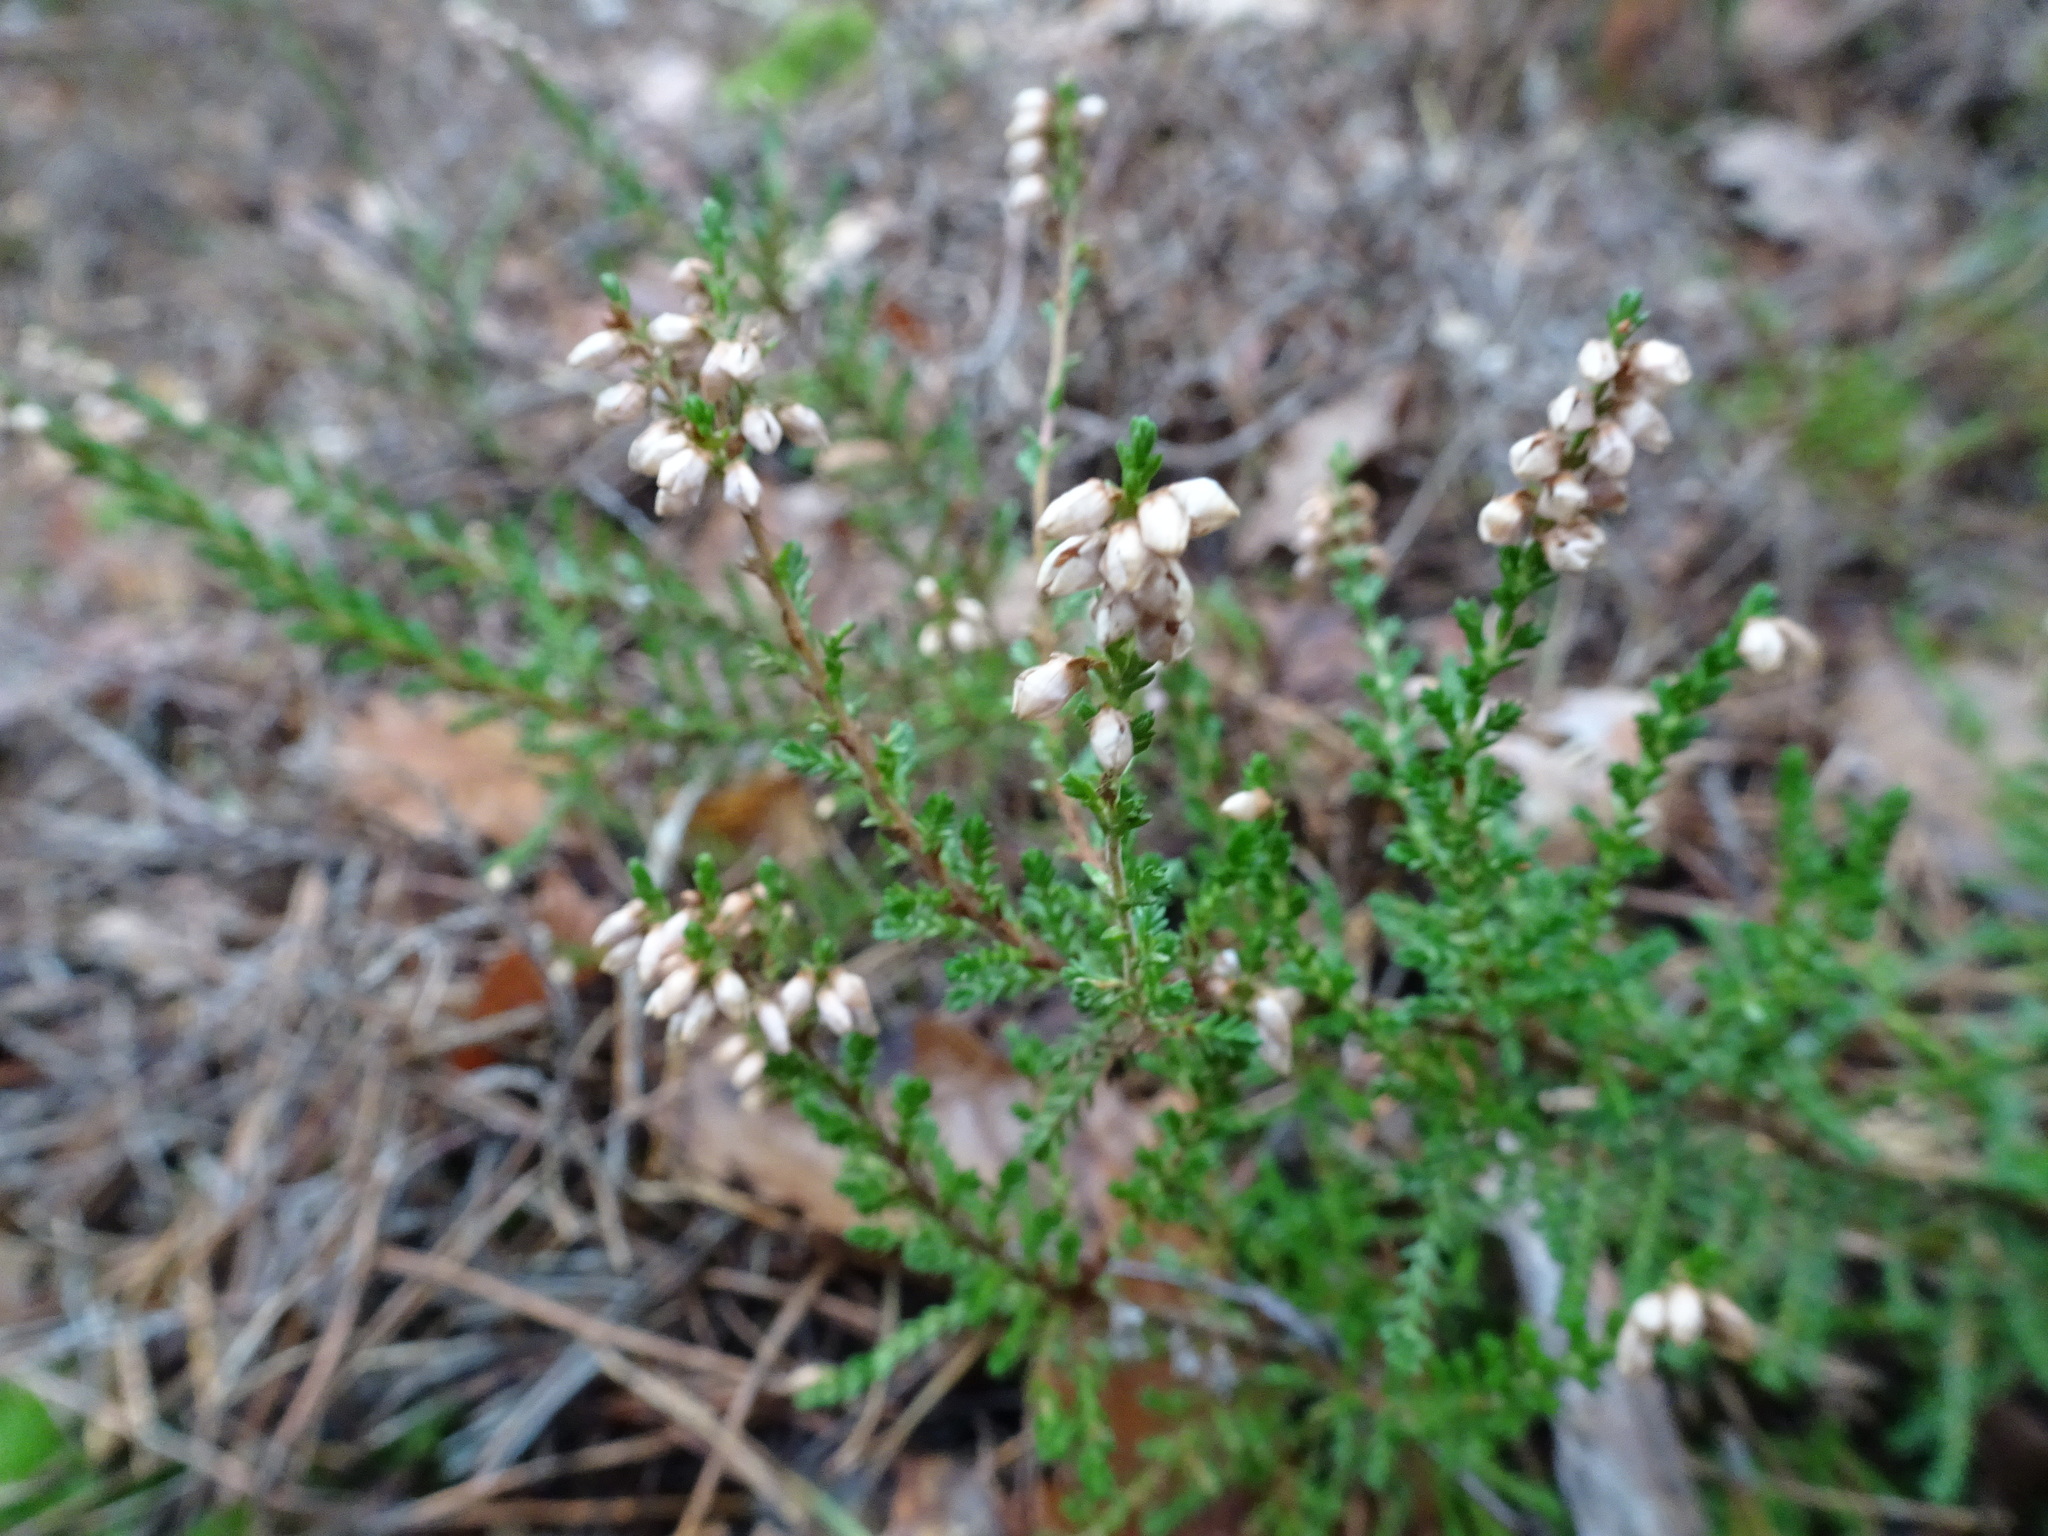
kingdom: Plantae
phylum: Tracheophyta
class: Magnoliopsida
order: Ericales
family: Ericaceae
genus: Calluna
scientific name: Calluna vulgaris
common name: Heather
